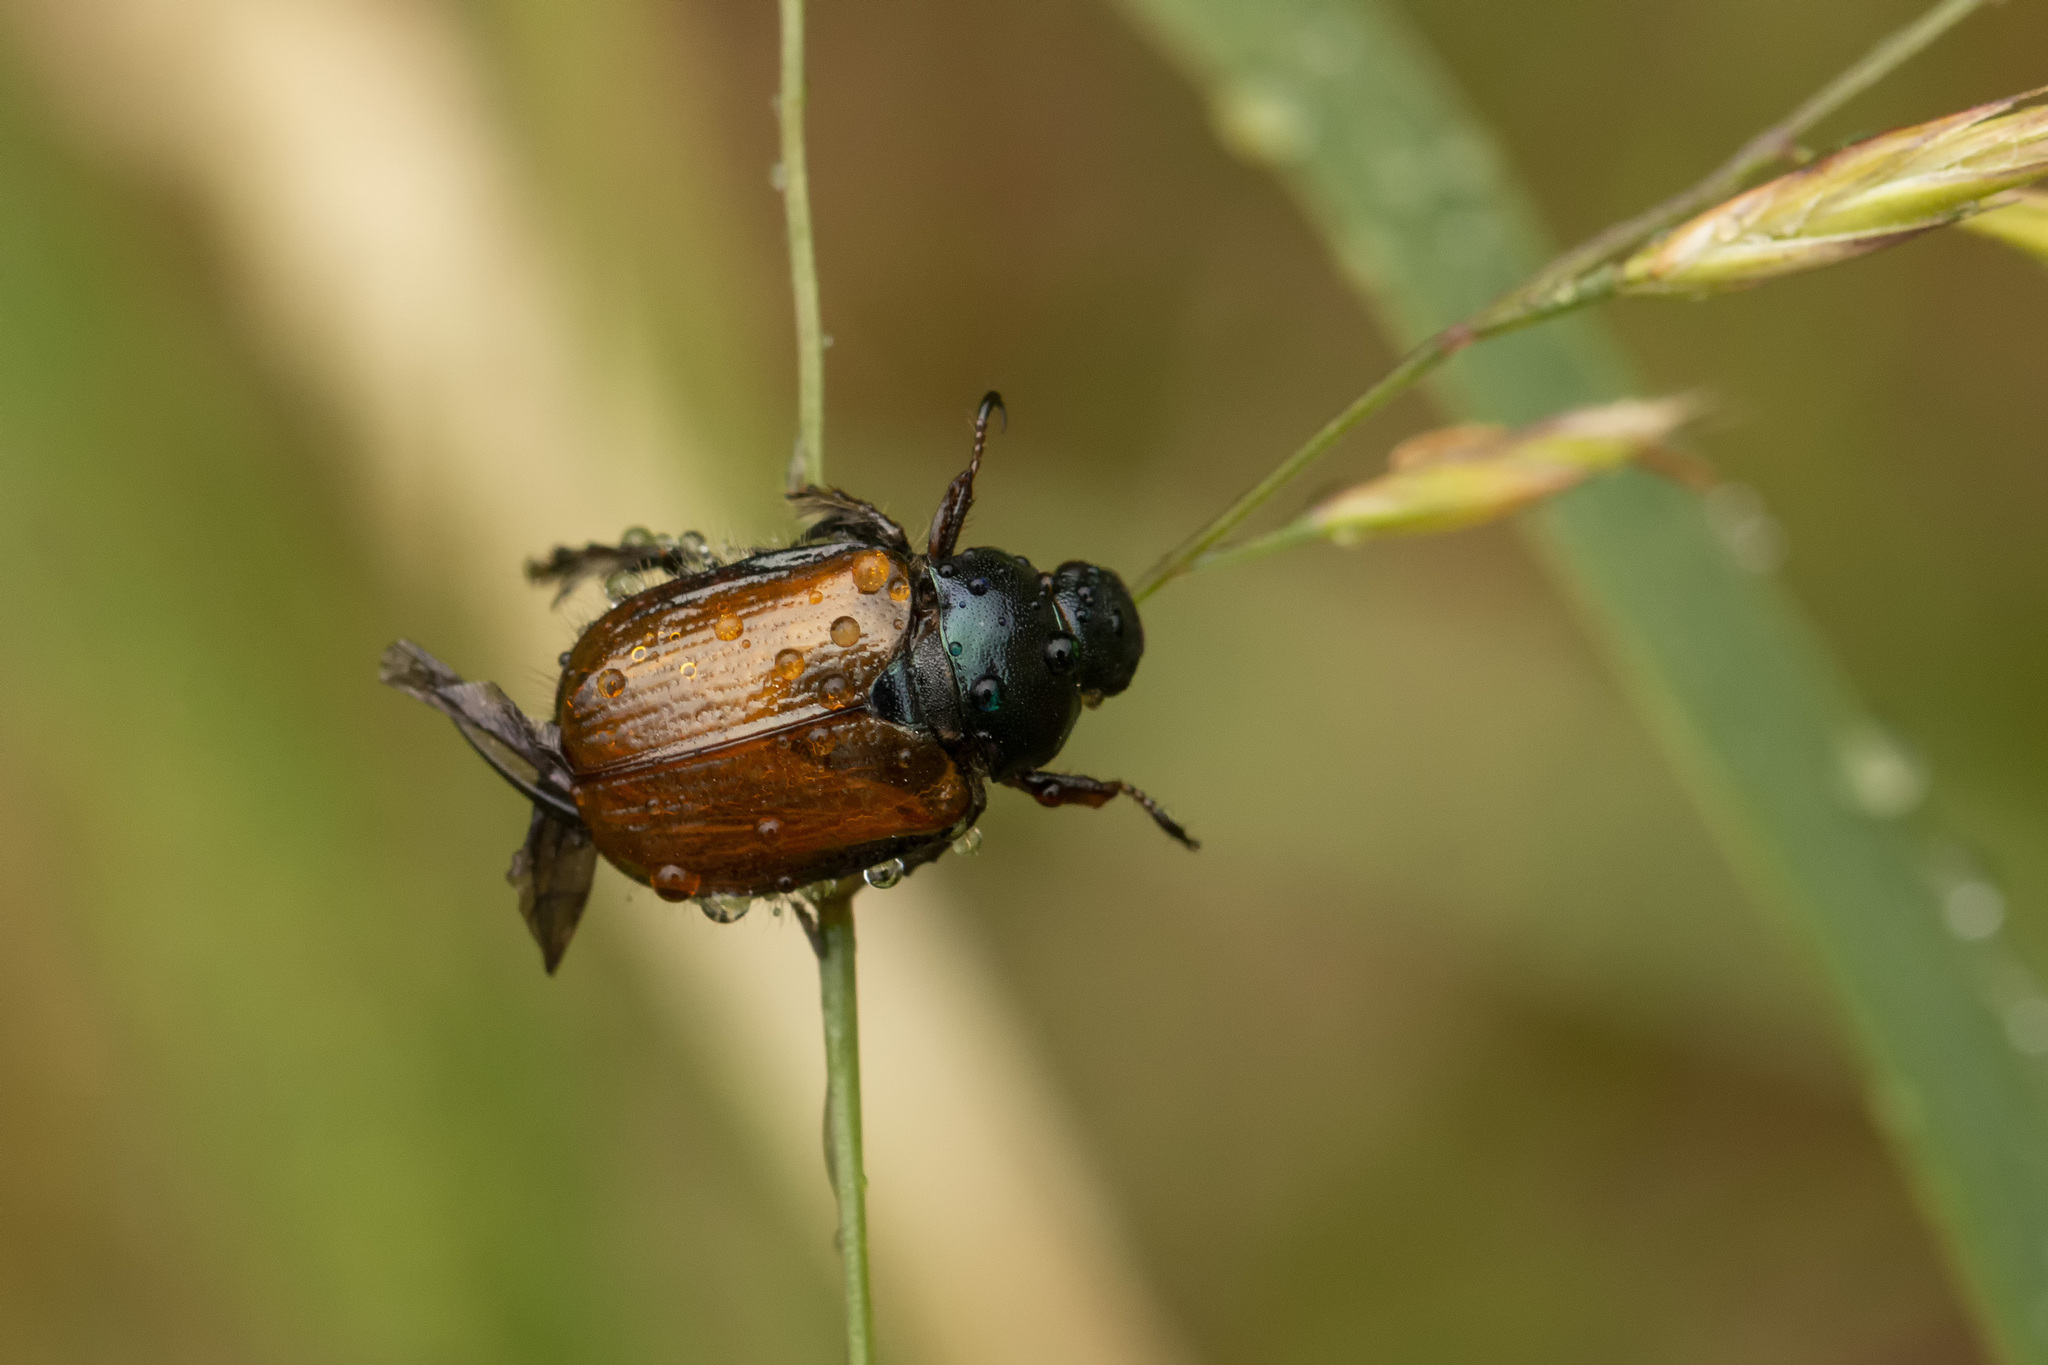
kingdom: Animalia
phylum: Arthropoda
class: Insecta
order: Coleoptera
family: Scarabaeidae
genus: Phyllopertha
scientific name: Phyllopertha horticola
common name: Garden chafer
